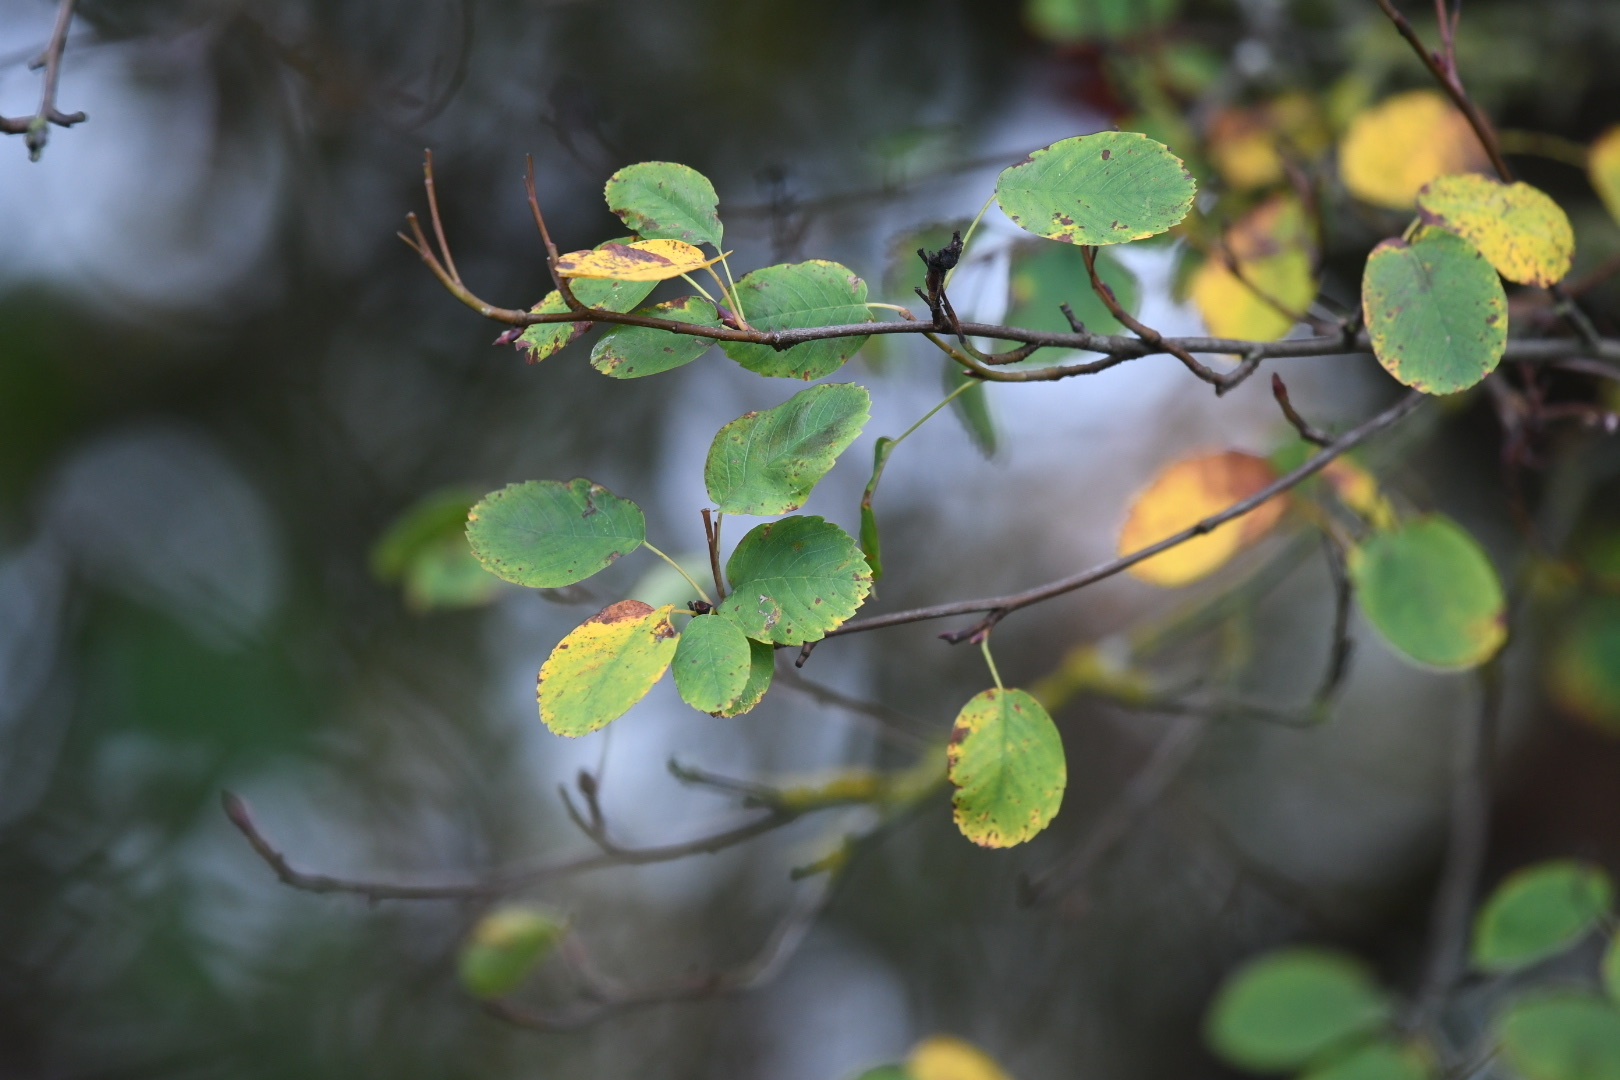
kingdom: Plantae
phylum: Tracheophyta
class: Magnoliopsida
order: Rosales
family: Rosaceae
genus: Amelanchier
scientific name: Amelanchier alnifolia
